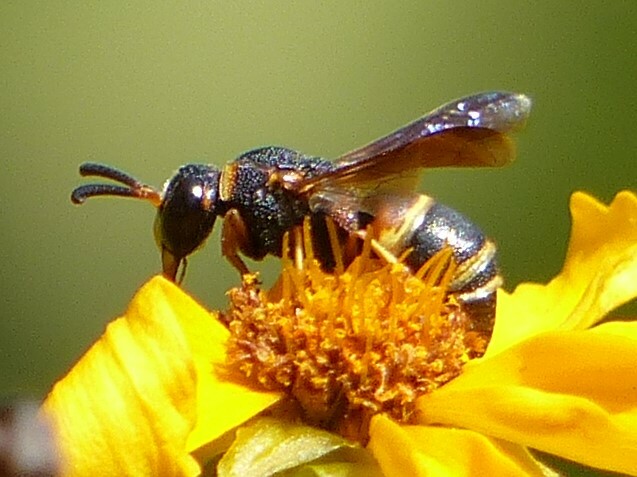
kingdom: Animalia
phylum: Arthropoda
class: Insecta
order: Hymenoptera
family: Eumenidae
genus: Euodynerus
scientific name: Euodynerus hidalgo
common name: Wasp
